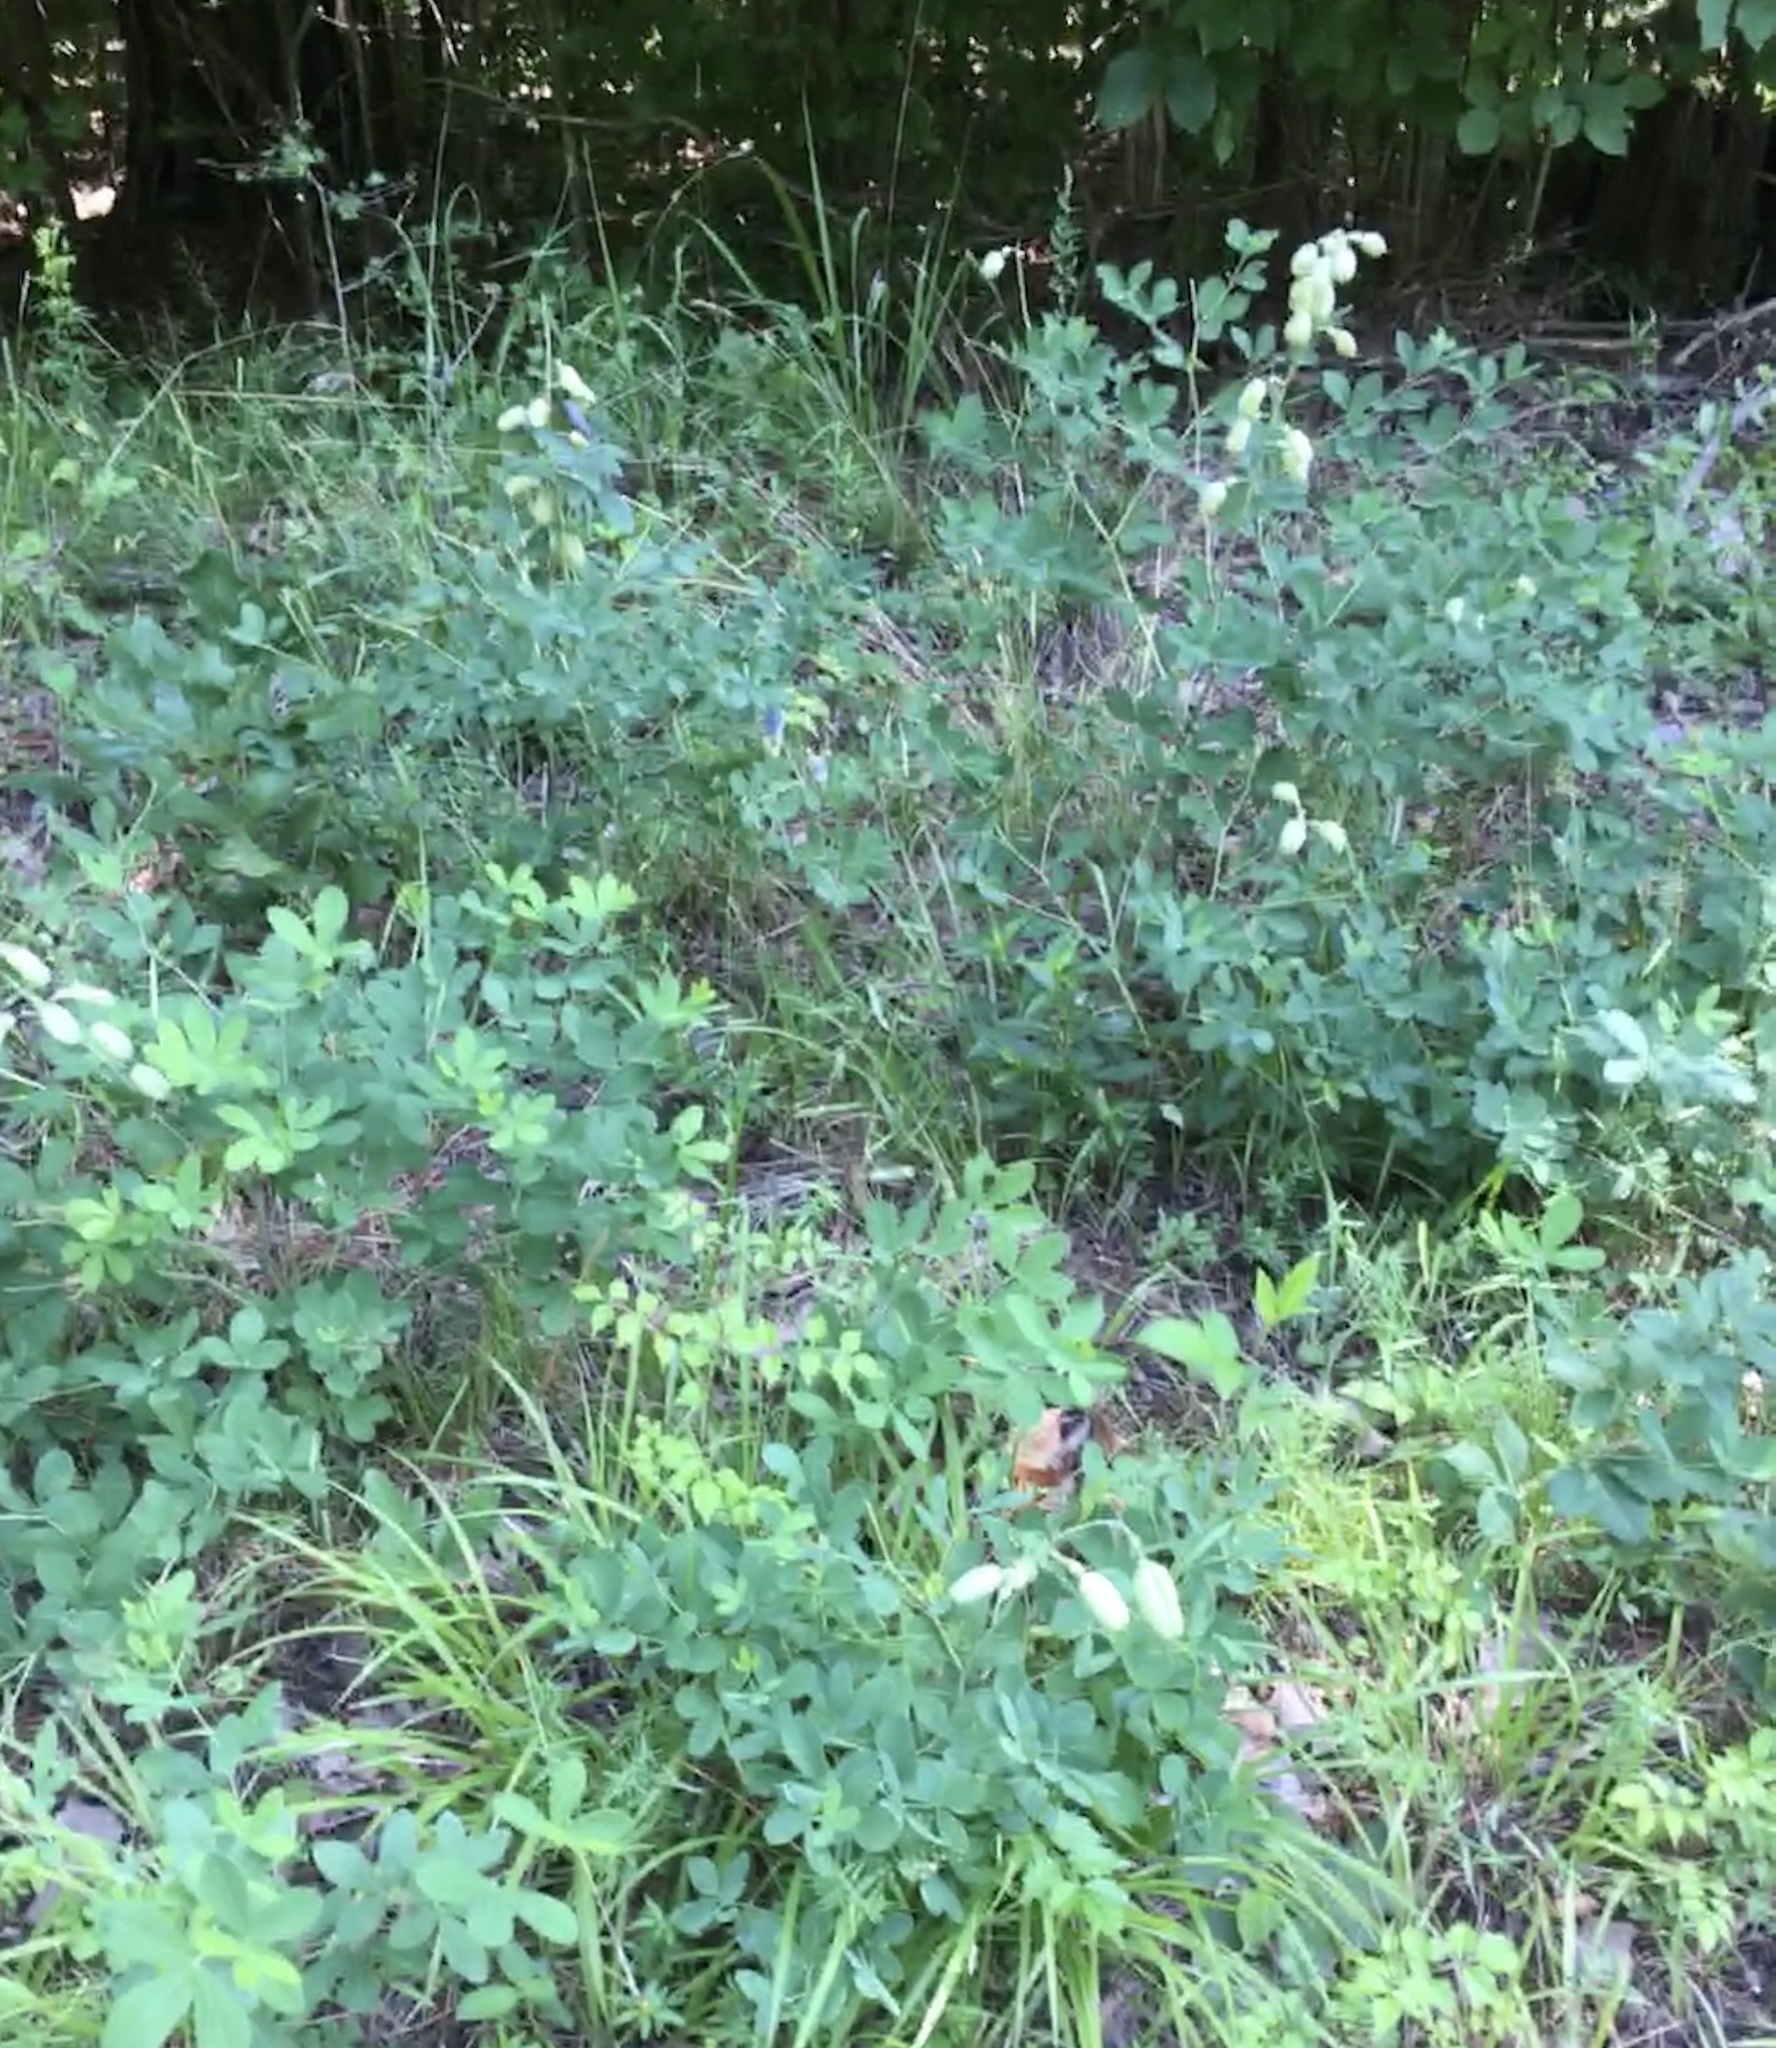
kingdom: Plantae
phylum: Tracheophyta
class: Magnoliopsida
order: Fabales
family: Fabaceae
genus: Baptisia
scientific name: Baptisia alba
